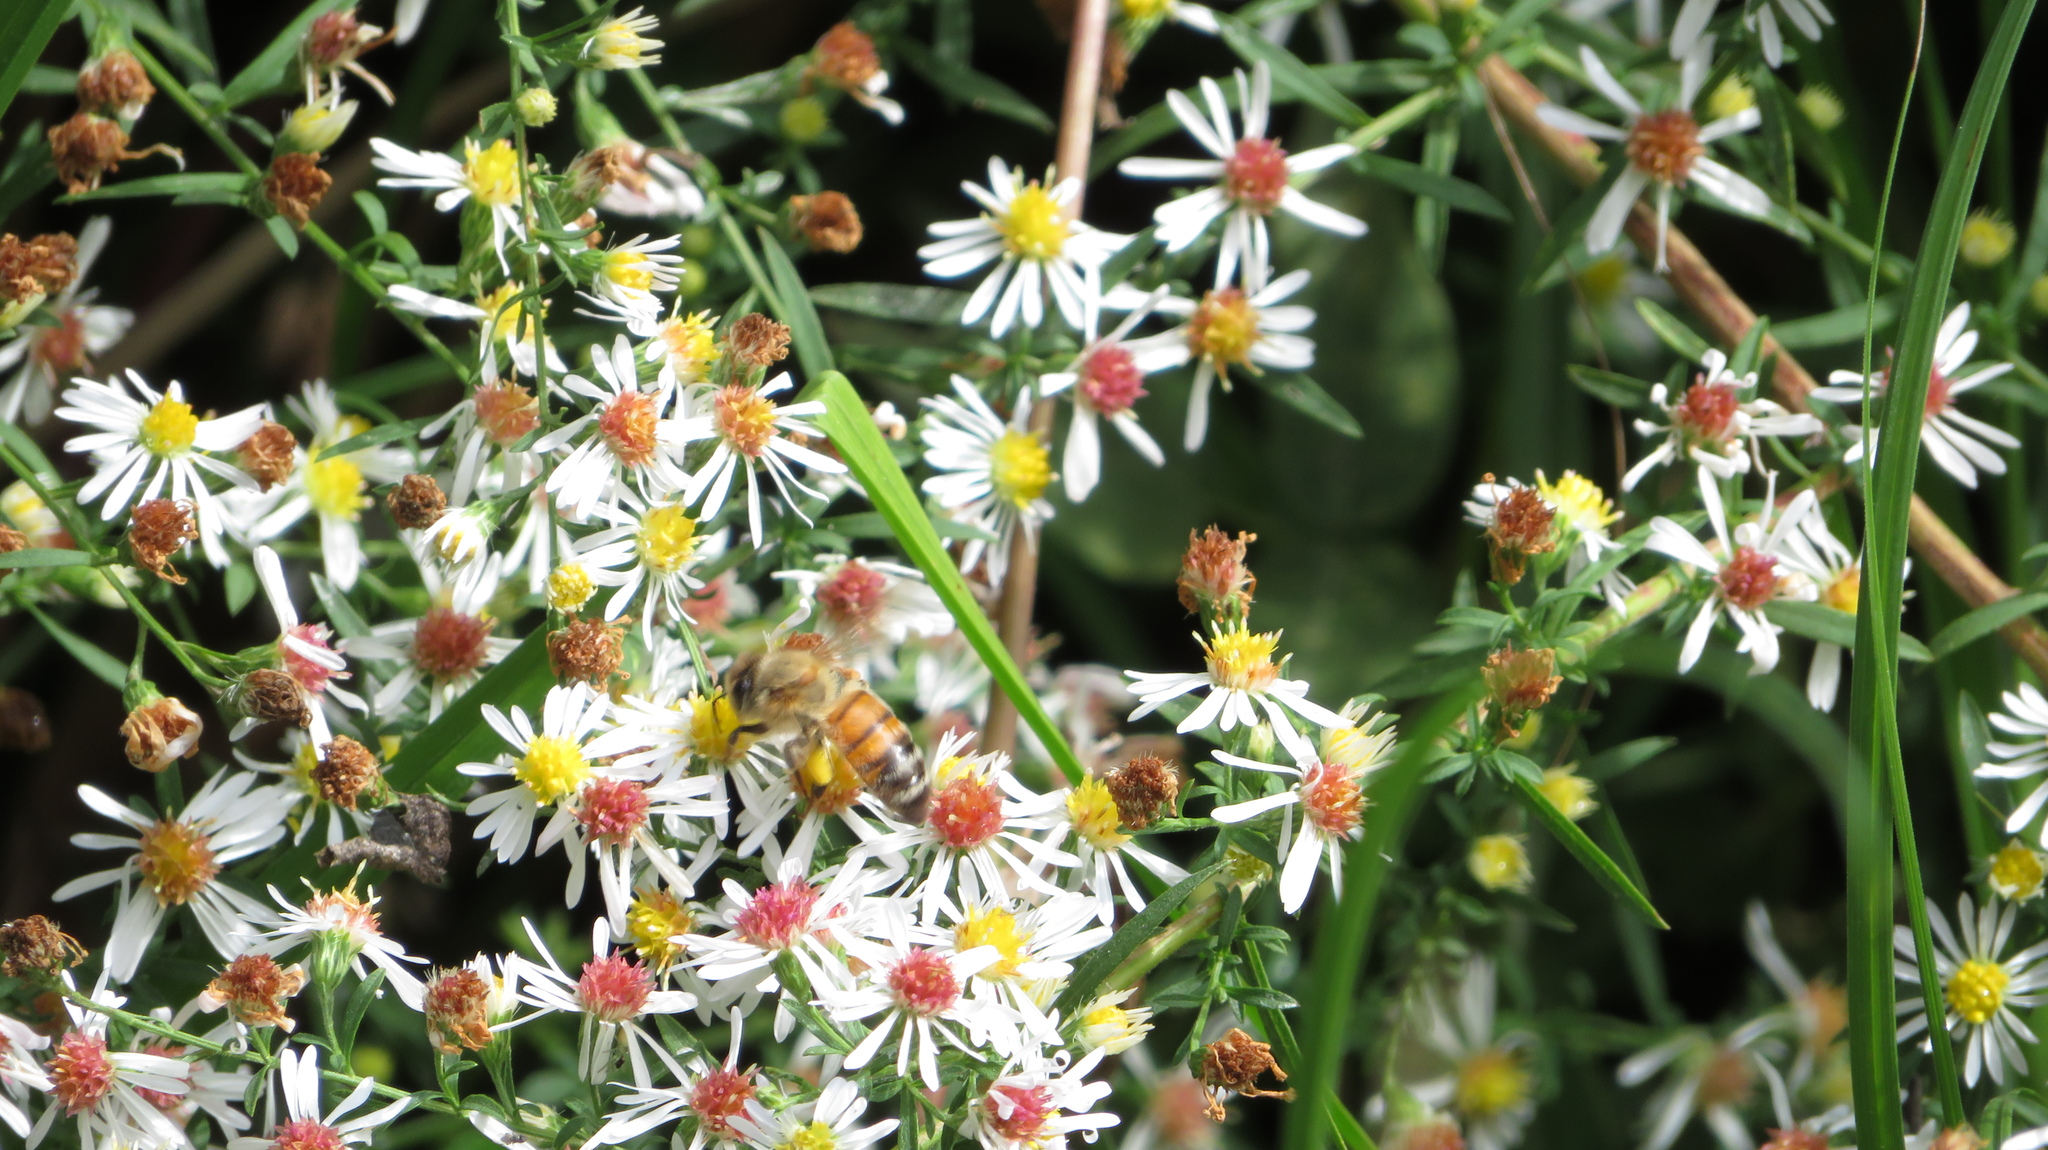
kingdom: Animalia
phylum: Arthropoda
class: Insecta
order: Hymenoptera
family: Apidae
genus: Apis
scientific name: Apis mellifera
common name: Honey bee
